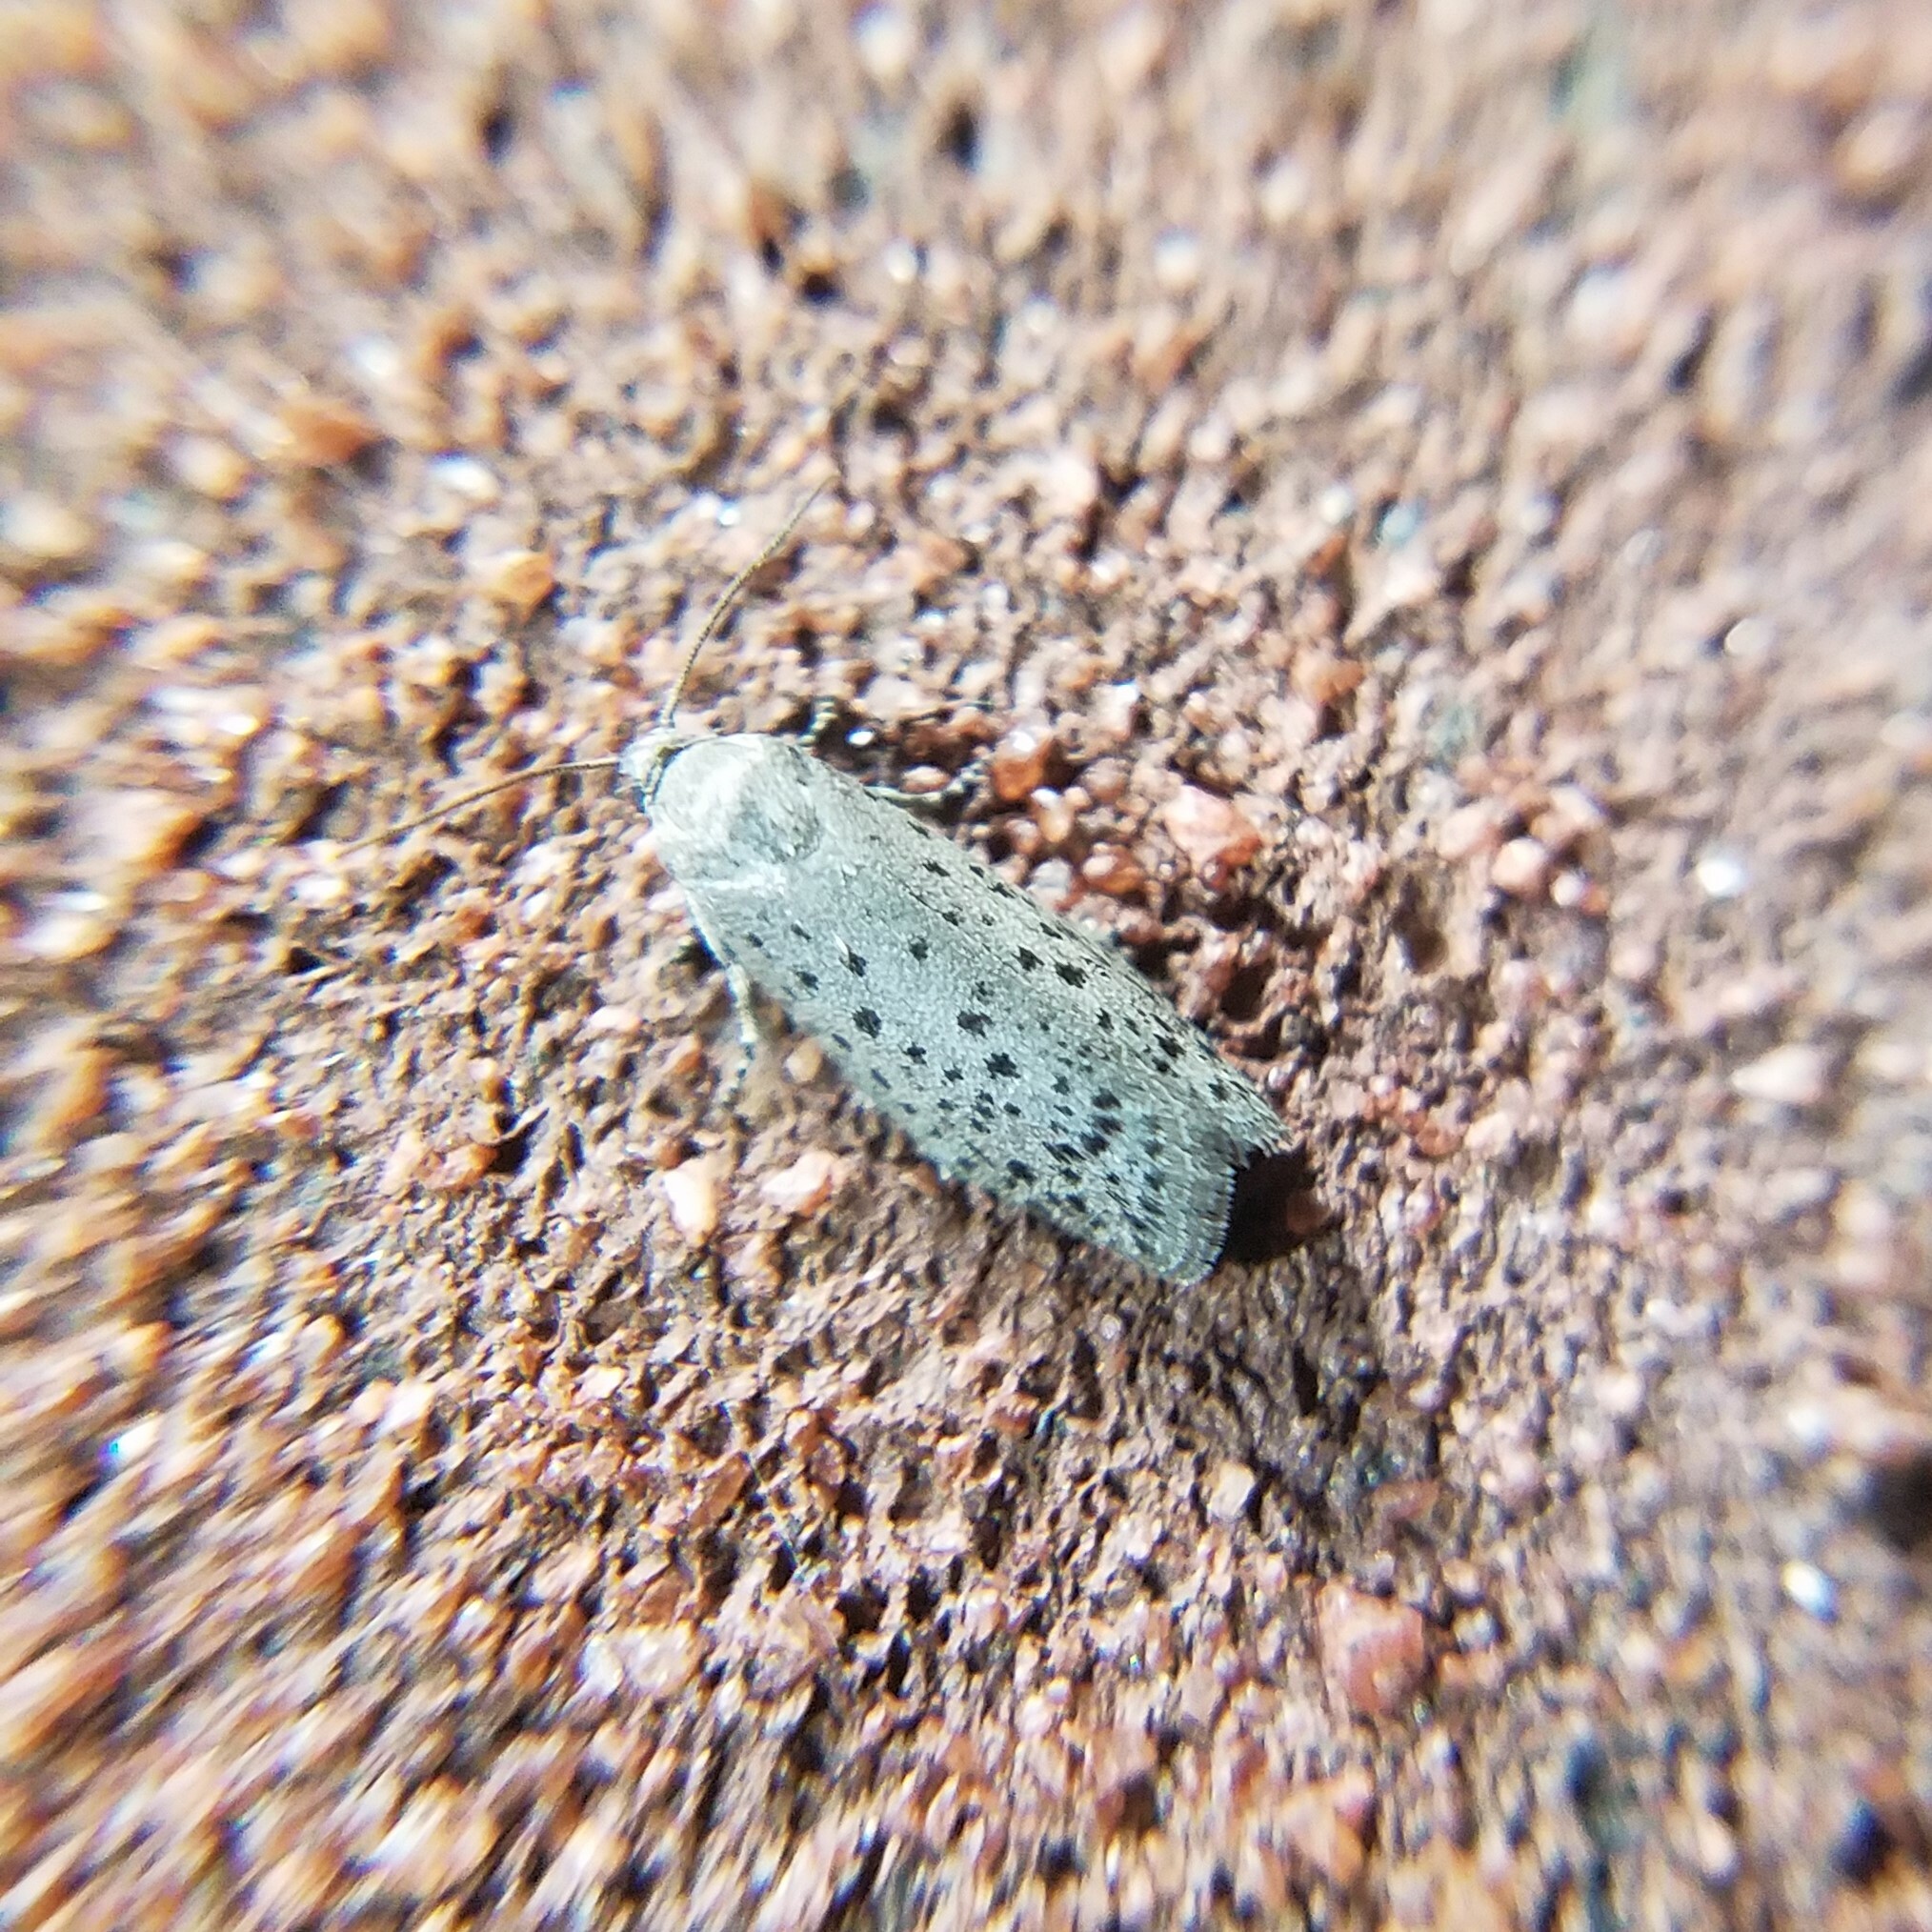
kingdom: Animalia
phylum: Arthropoda
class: Insecta
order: Lepidoptera
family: Galacticidae
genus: Homadaula
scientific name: Homadaula anisocentra
